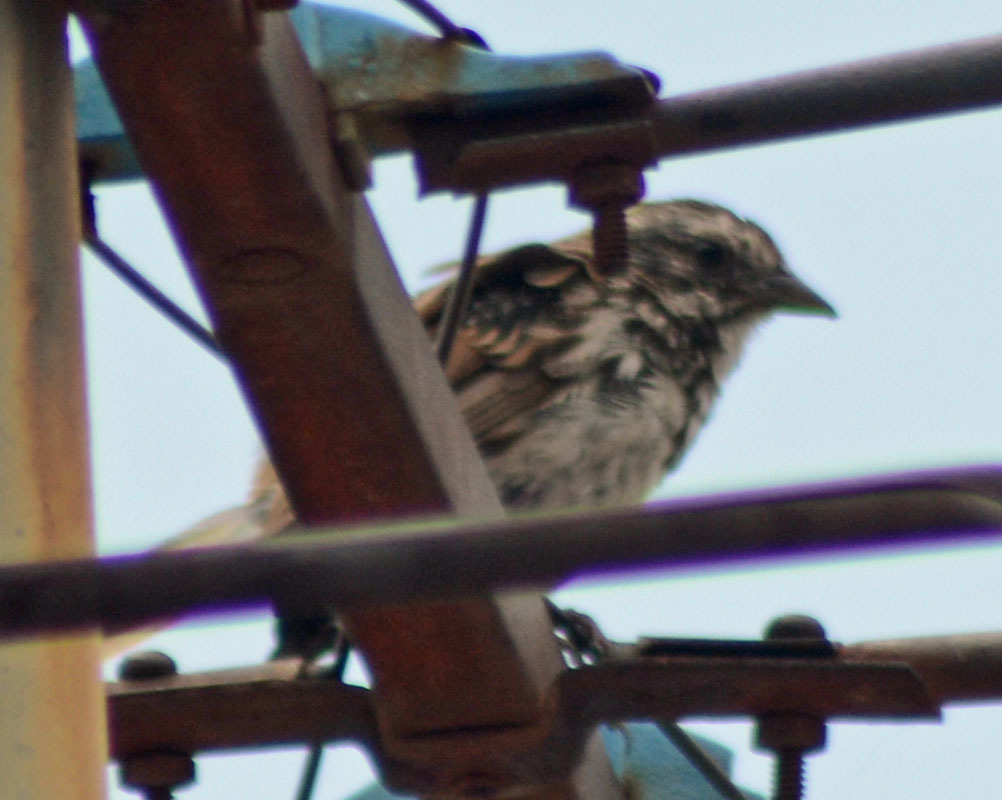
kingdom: Animalia
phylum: Chordata
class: Aves
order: Passeriformes
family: Passerellidae
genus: Melospiza
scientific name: Melospiza melodia
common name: Song sparrow
